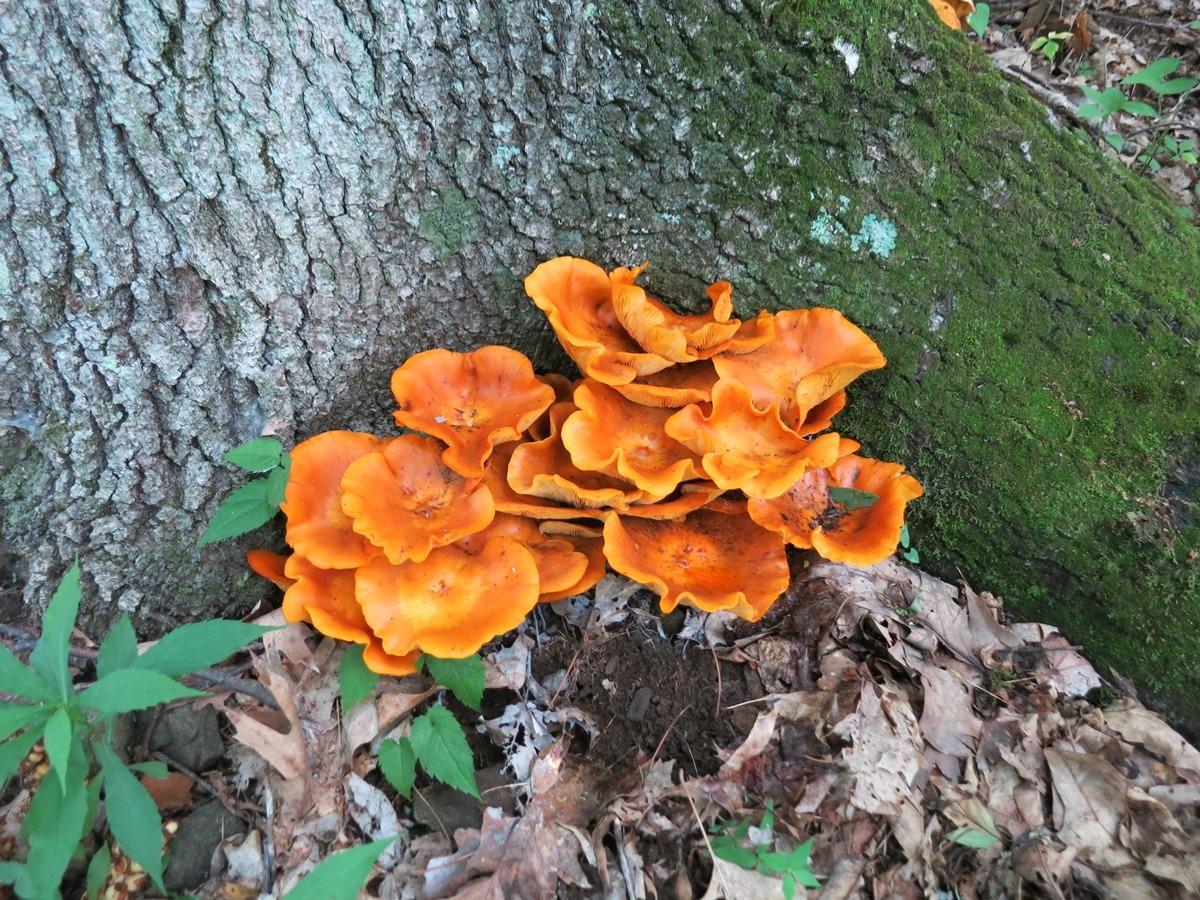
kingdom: Fungi
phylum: Basidiomycota
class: Agaricomycetes
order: Agaricales
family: Omphalotaceae
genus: Omphalotus
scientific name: Omphalotus illudens
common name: Jack o lantern
